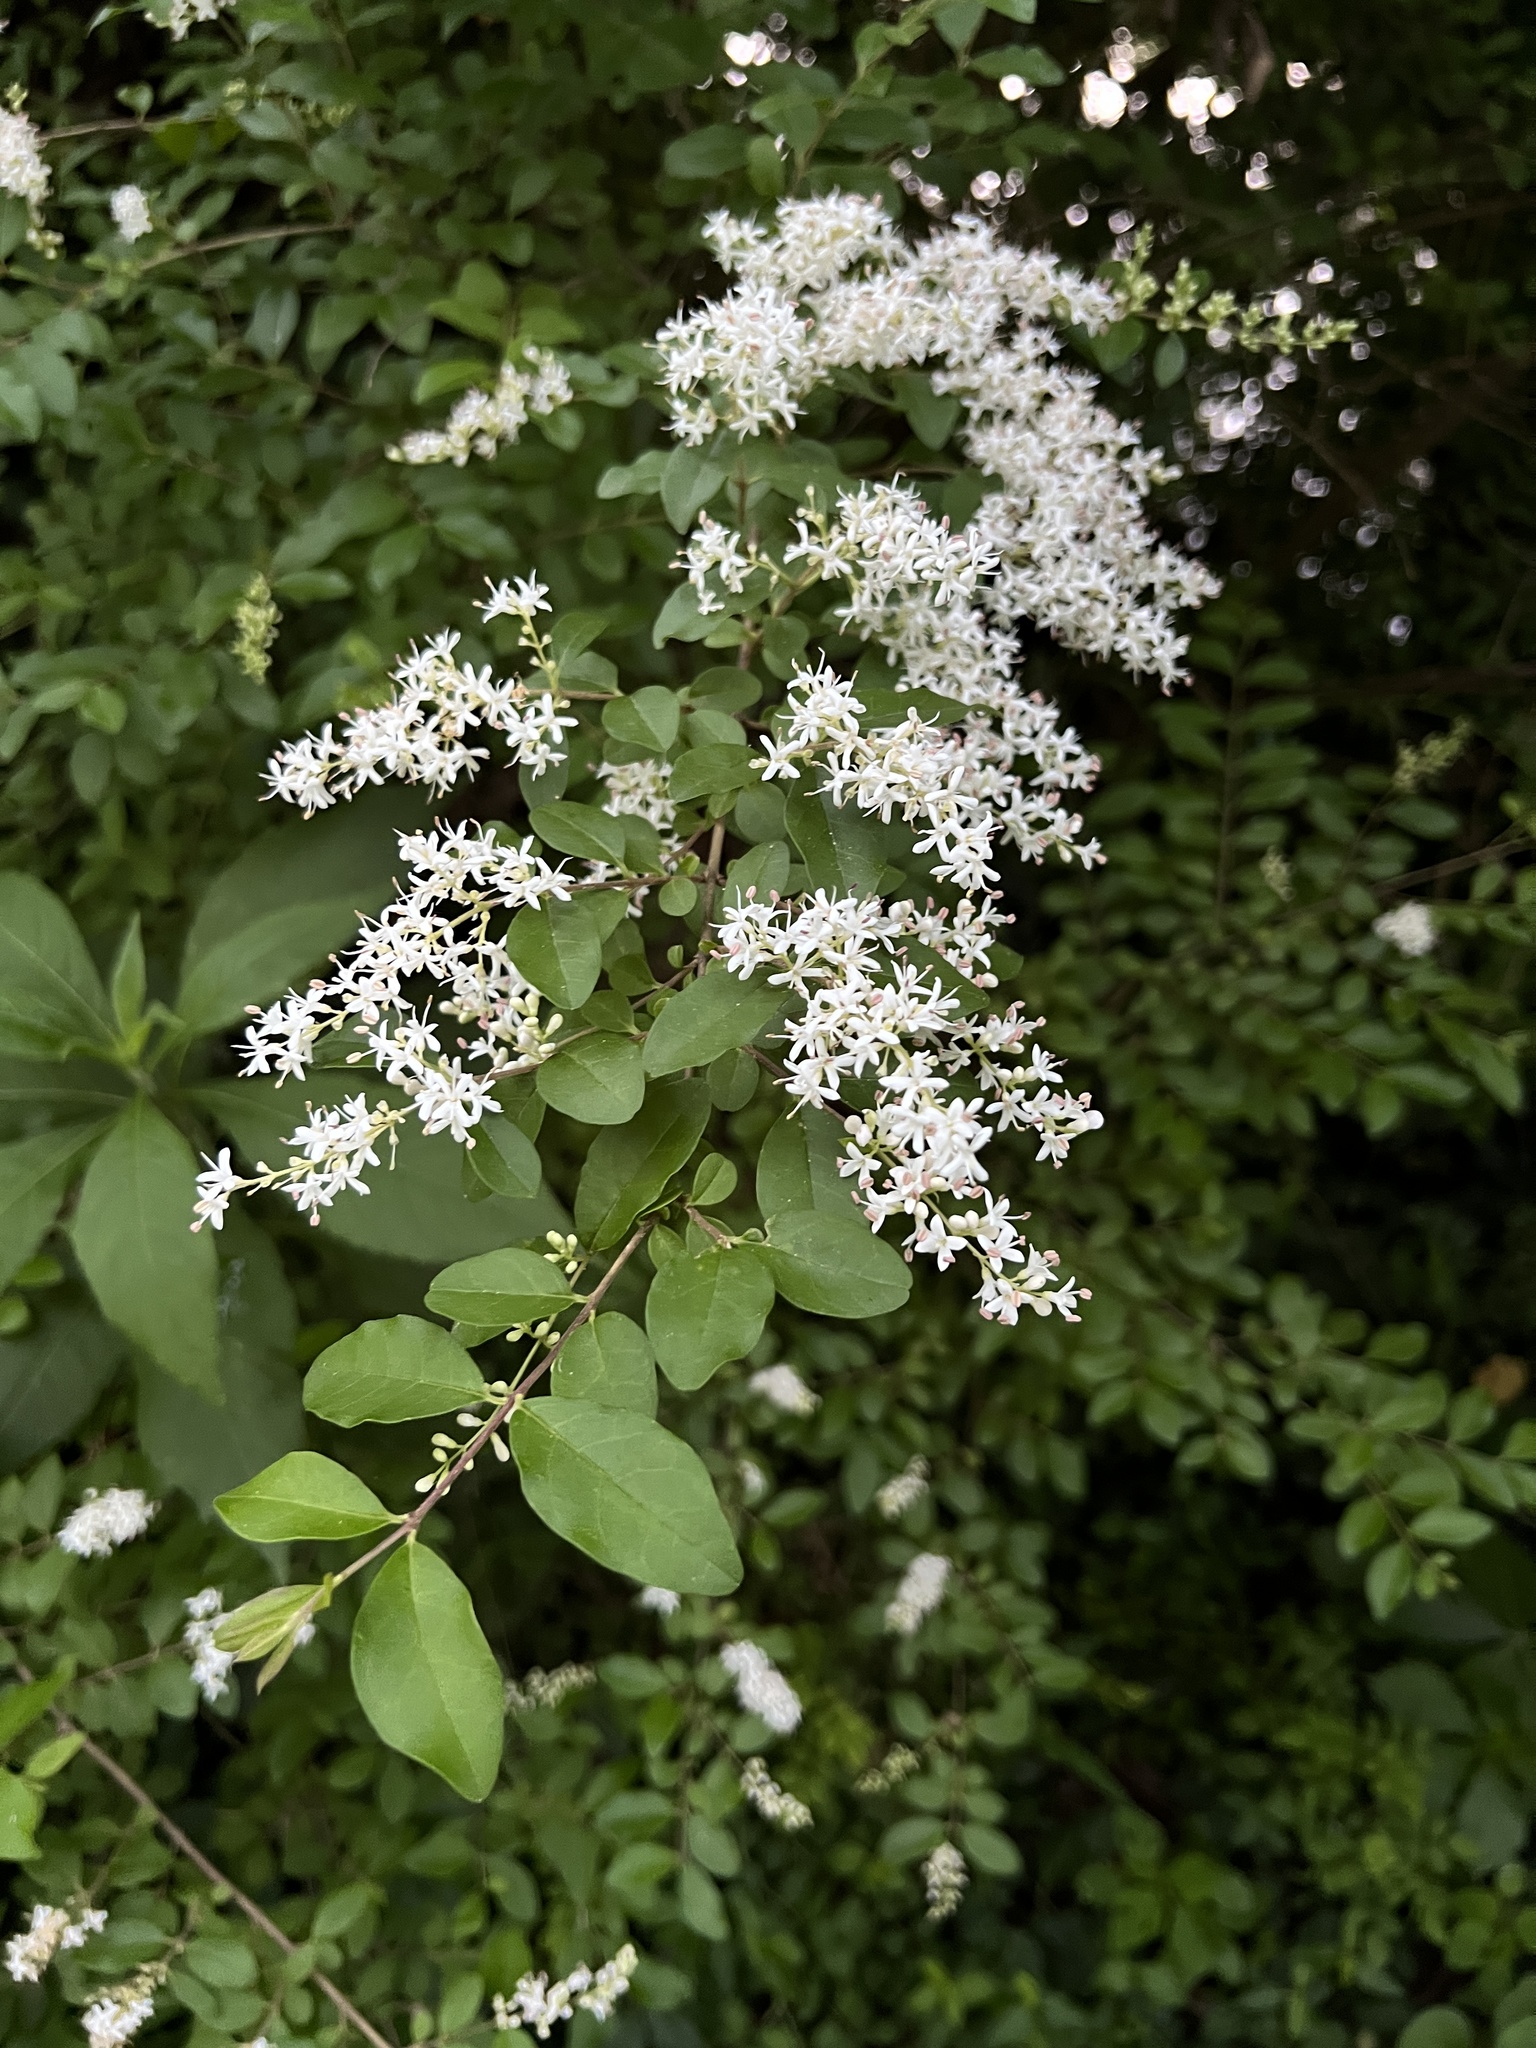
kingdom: Plantae
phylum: Tracheophyta
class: Magnoliopsida
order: Lamiales
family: Oleaceae
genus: Ligustrum
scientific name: Ligustrum sinense
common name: Chinese privet
